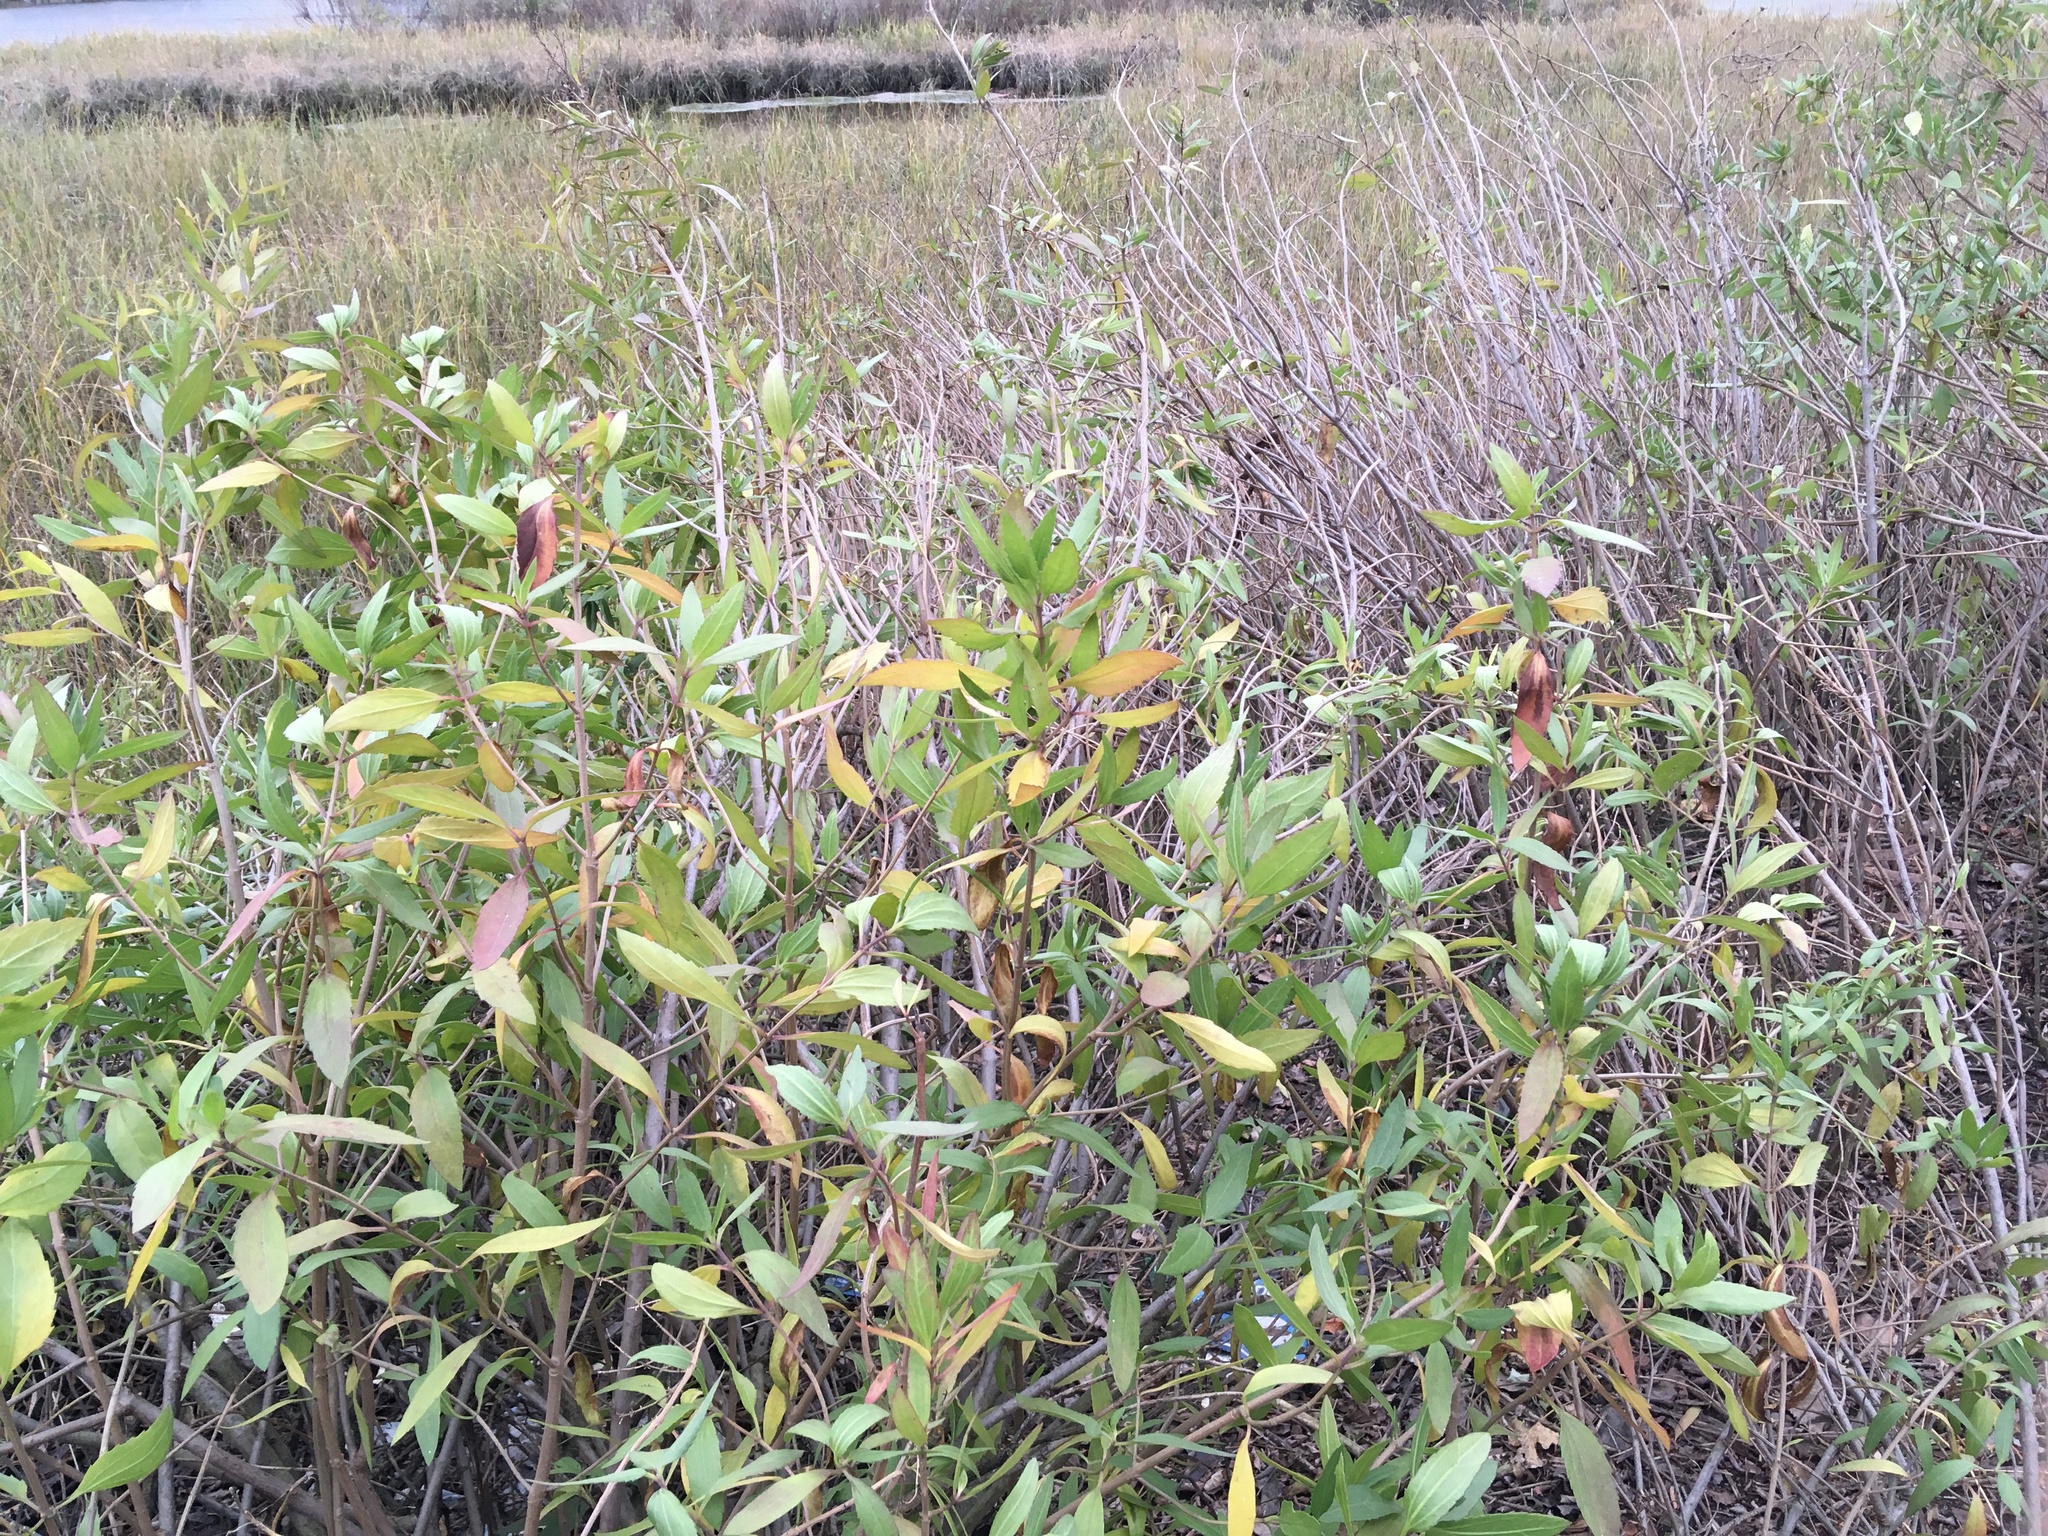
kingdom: Plantae
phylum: Tracheophyta
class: Magnoliopsida
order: Asterales
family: Asteraceae
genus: Iva
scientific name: Iva frutescens
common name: Big-leaved marsh-elder
